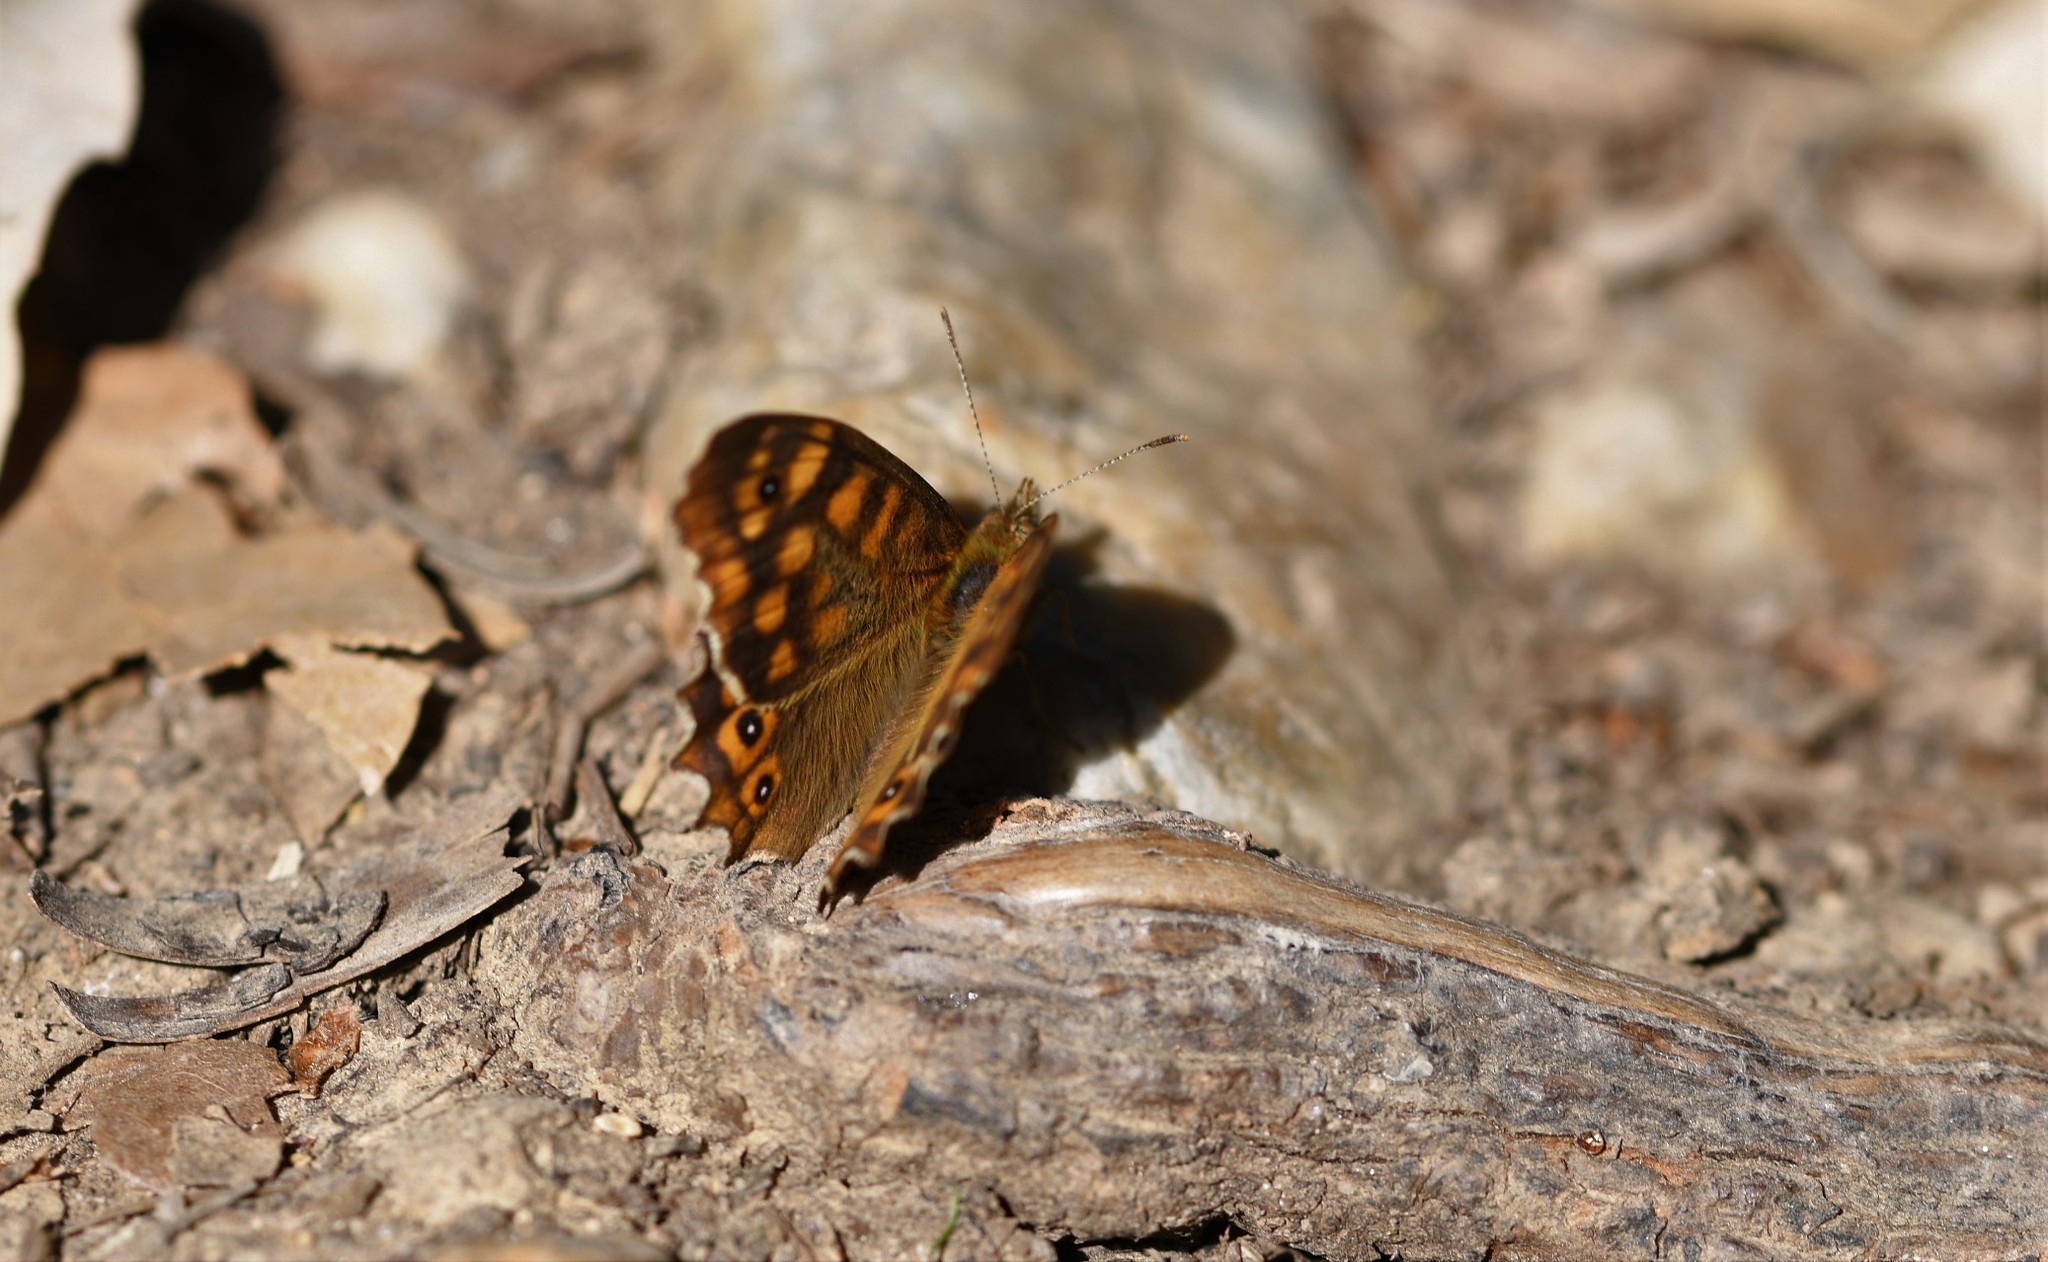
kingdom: Animalia
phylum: Arthropoda
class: Insecta
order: Lepidoptera
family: Nymphalidae
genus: Pararge
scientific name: Pararge aegeria
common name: Speckled wood
